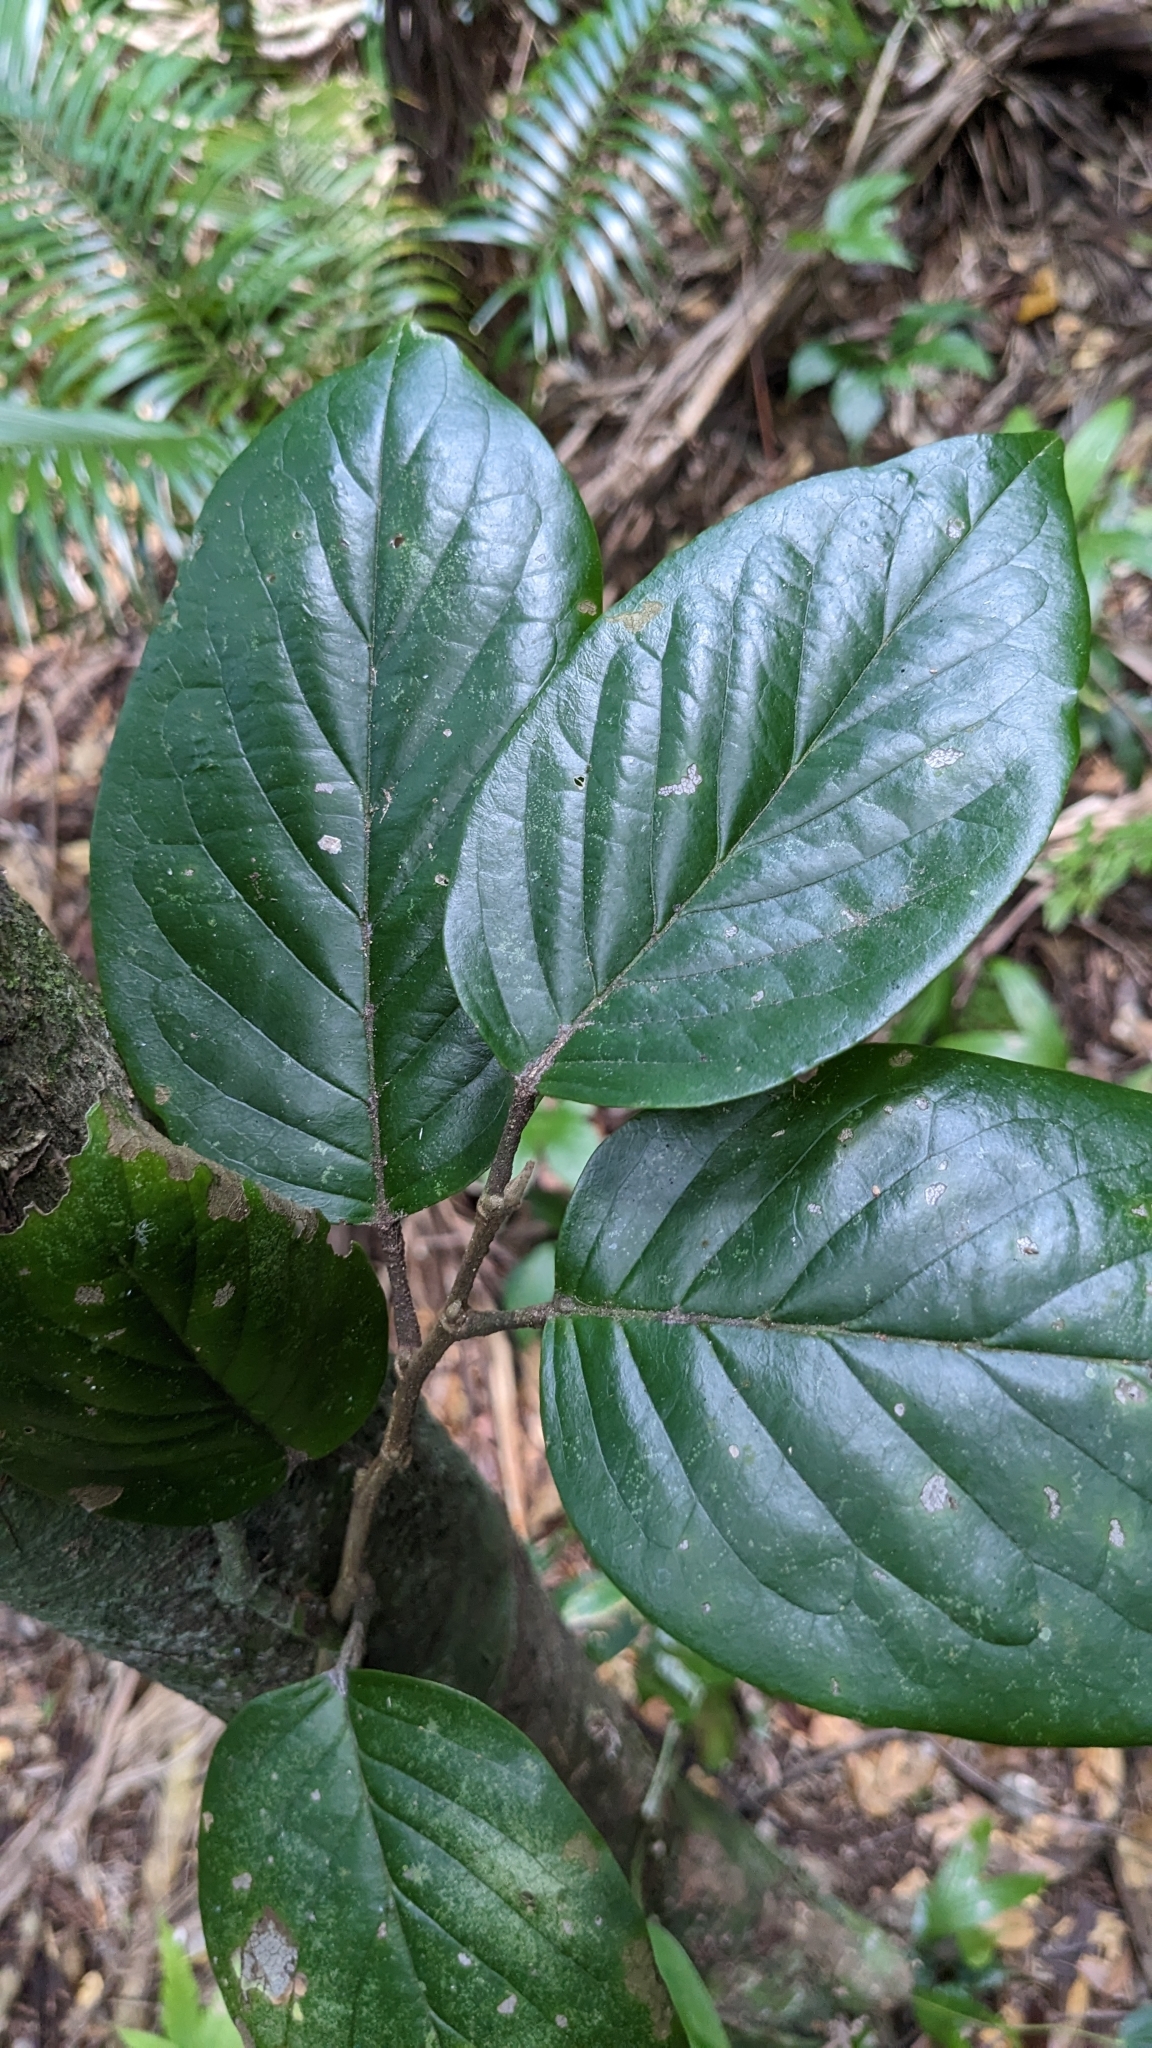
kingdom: Plantae
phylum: Tracheophyta
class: Magnoliopsida
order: Rosales
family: Rosaceae
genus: Prunus
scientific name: Prunus grisea
